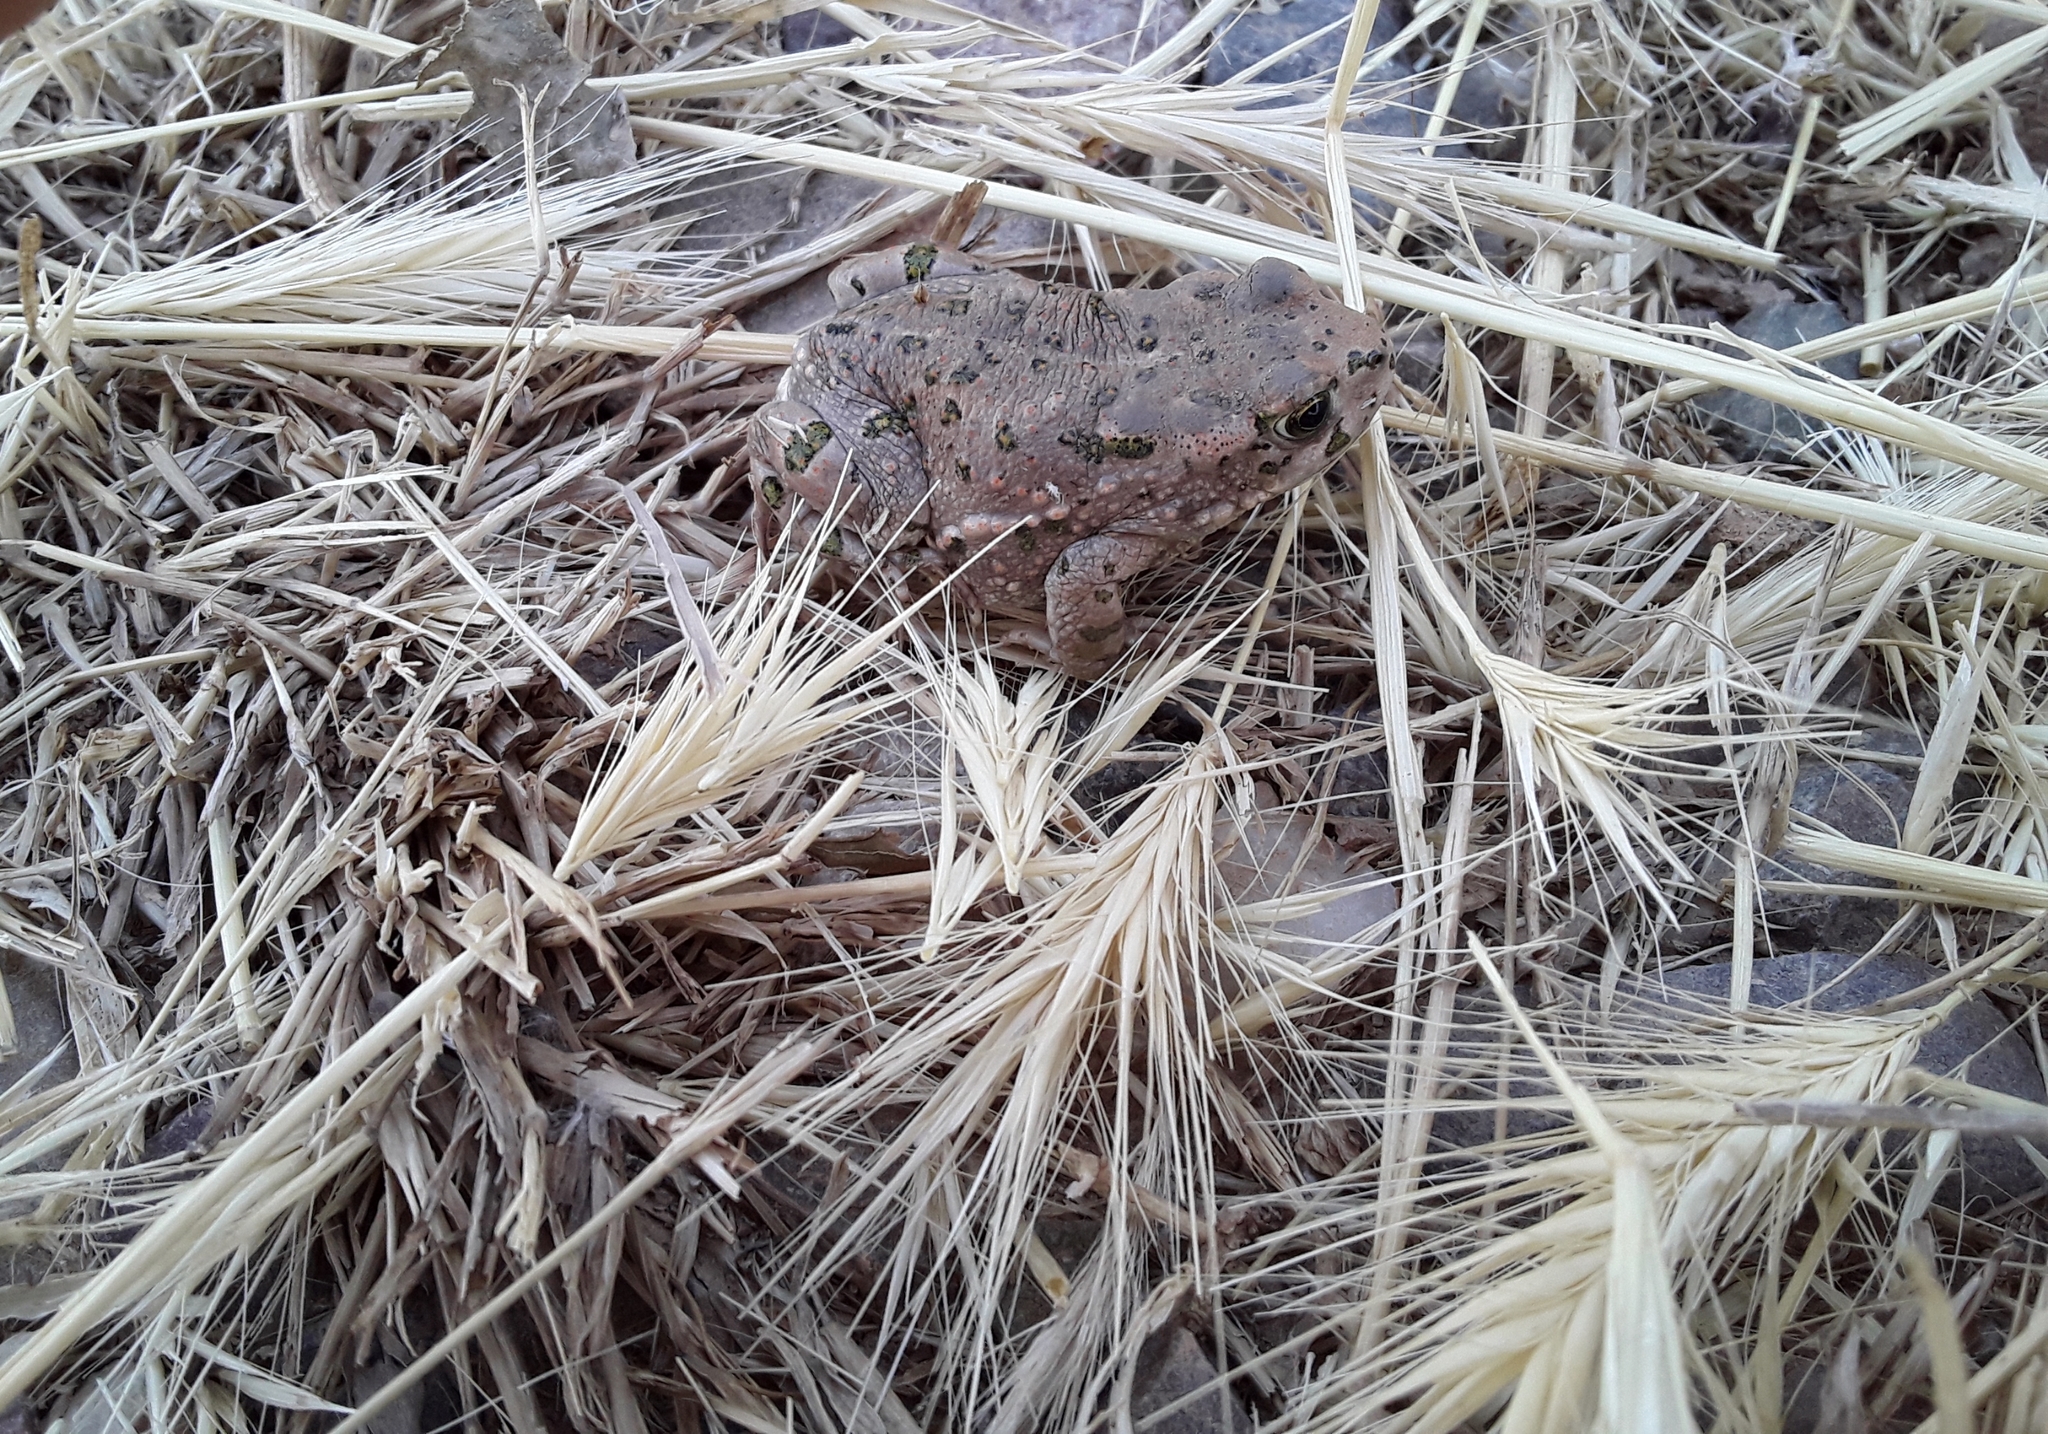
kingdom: Animalia
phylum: Chordata
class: Amphibia
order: Anura
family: Bufonidae
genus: Bufotes
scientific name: Bufotes viridis
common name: European green toad
